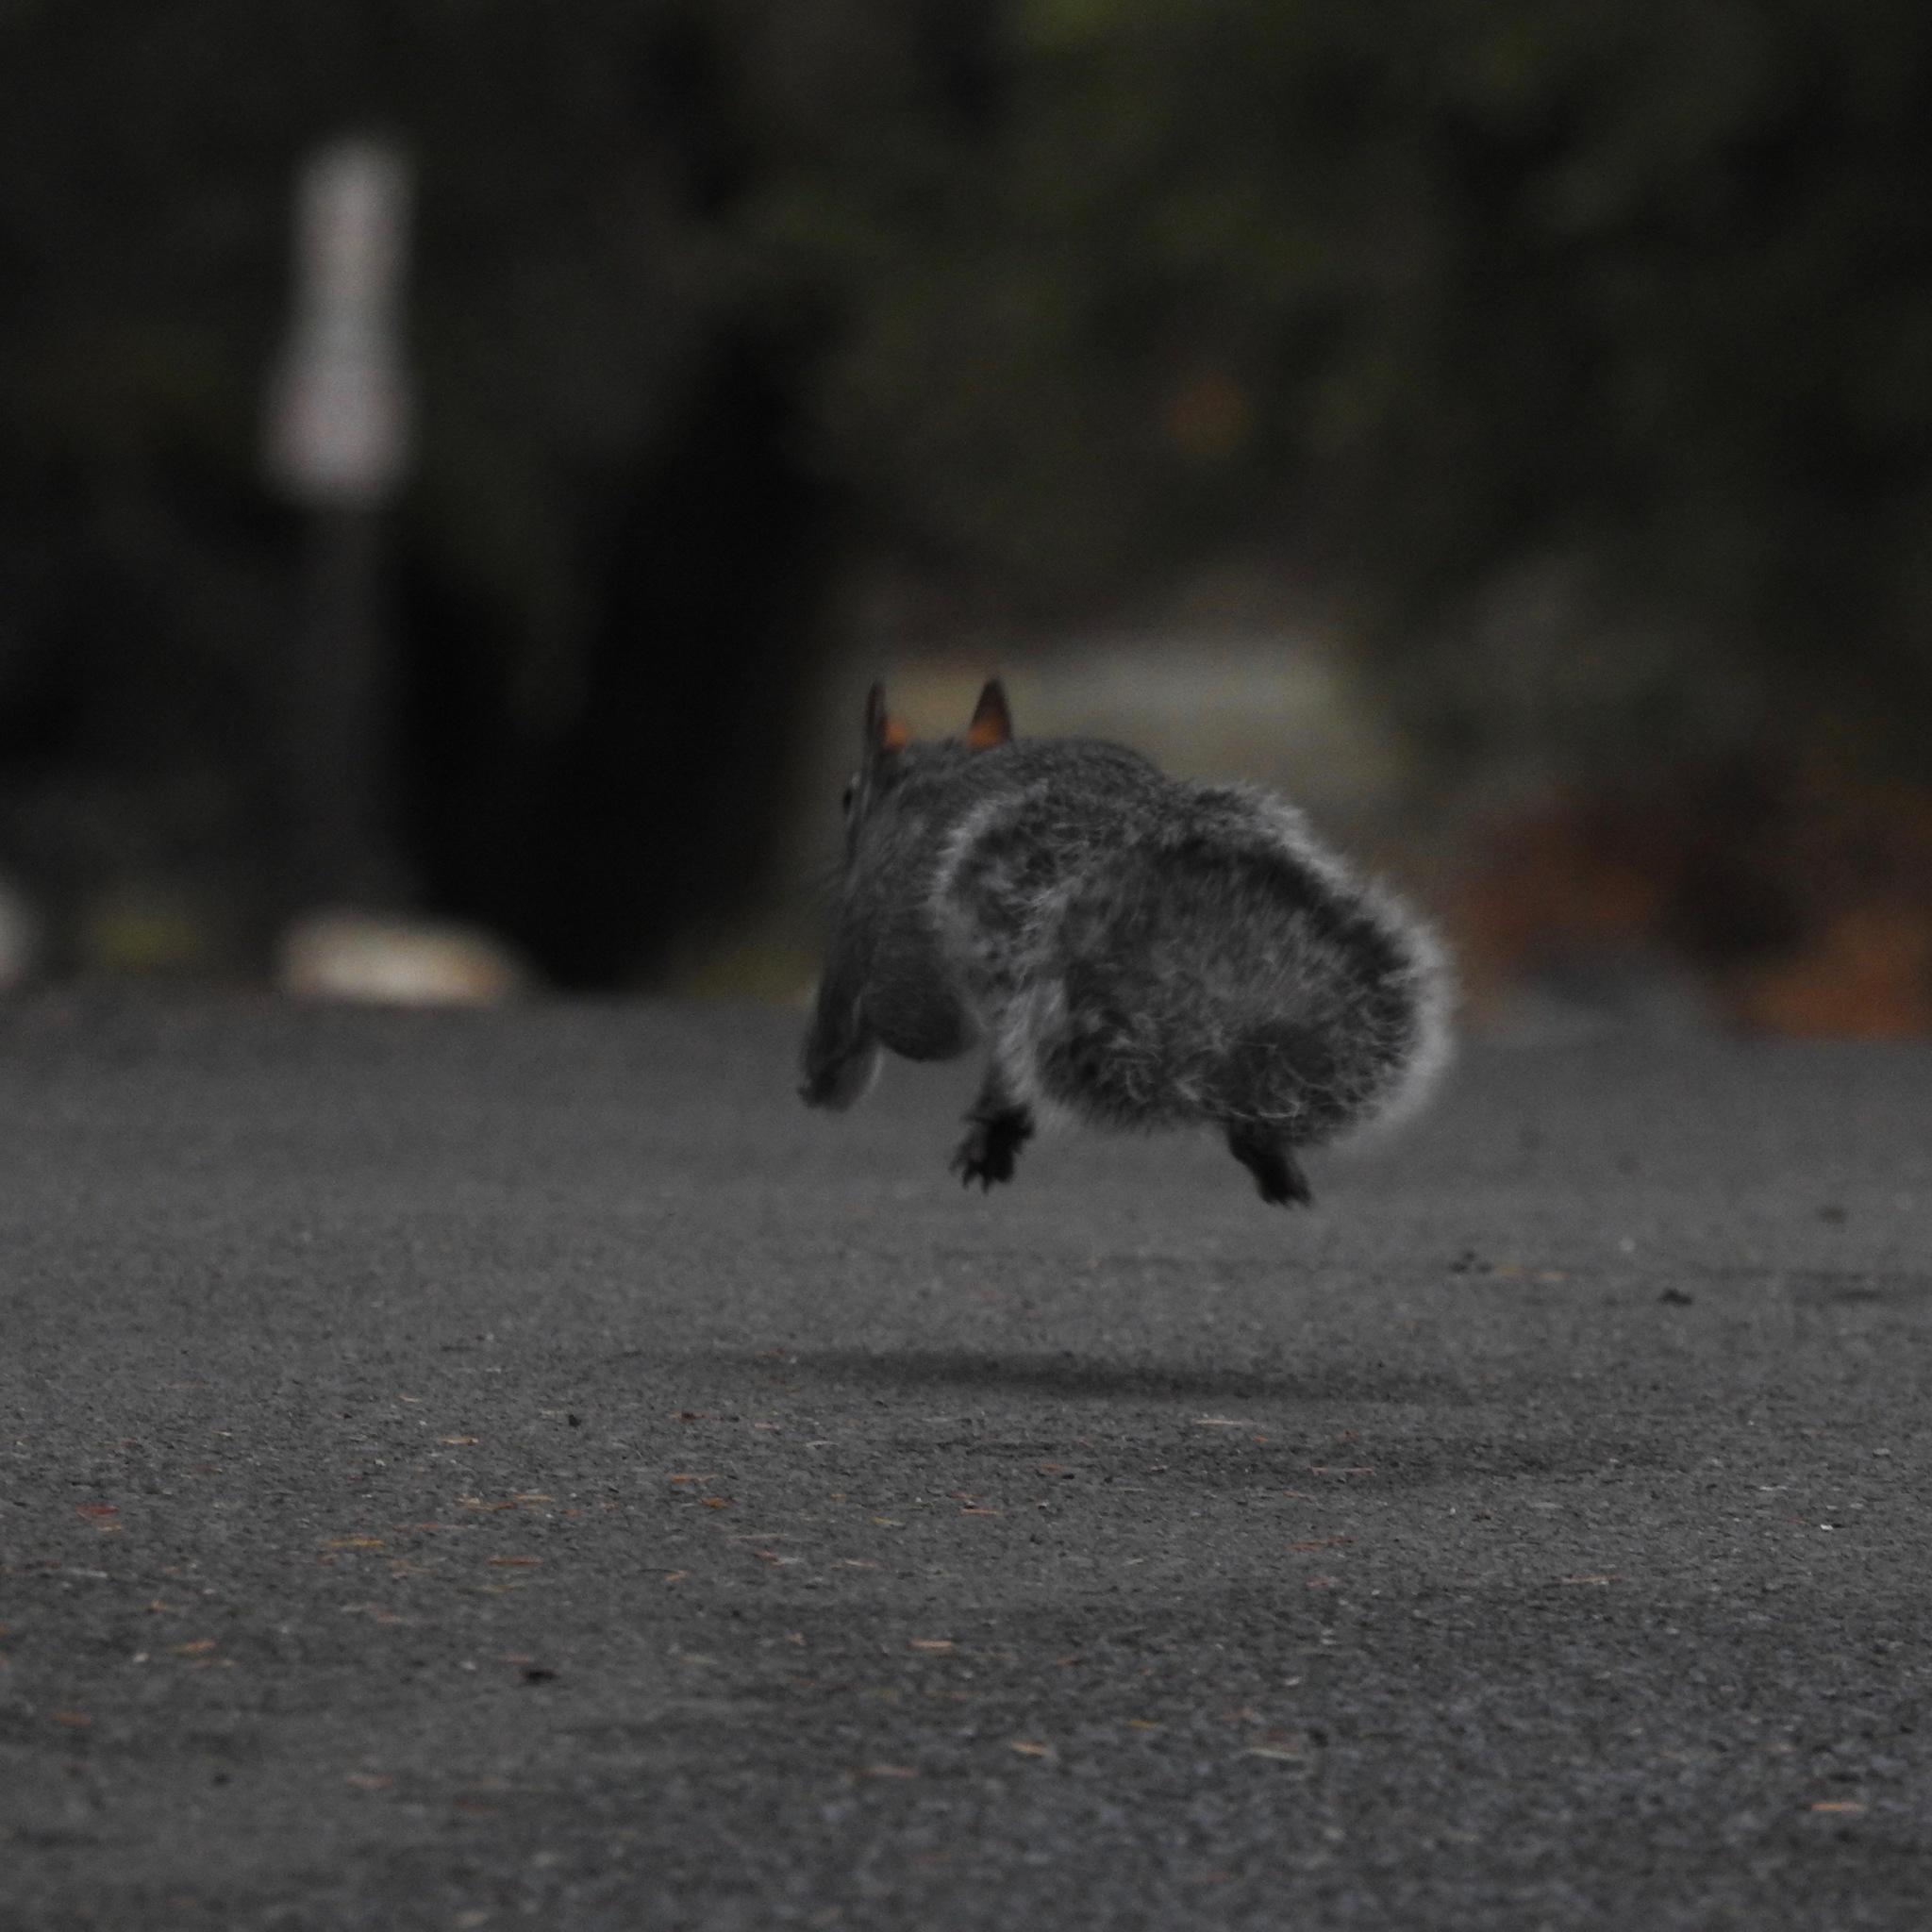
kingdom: Animalia
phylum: Chordata
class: Mammalia
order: Rodentia
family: Sciuridae
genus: Sciurus
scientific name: Sciurus griseus
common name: Western gray squirrel
